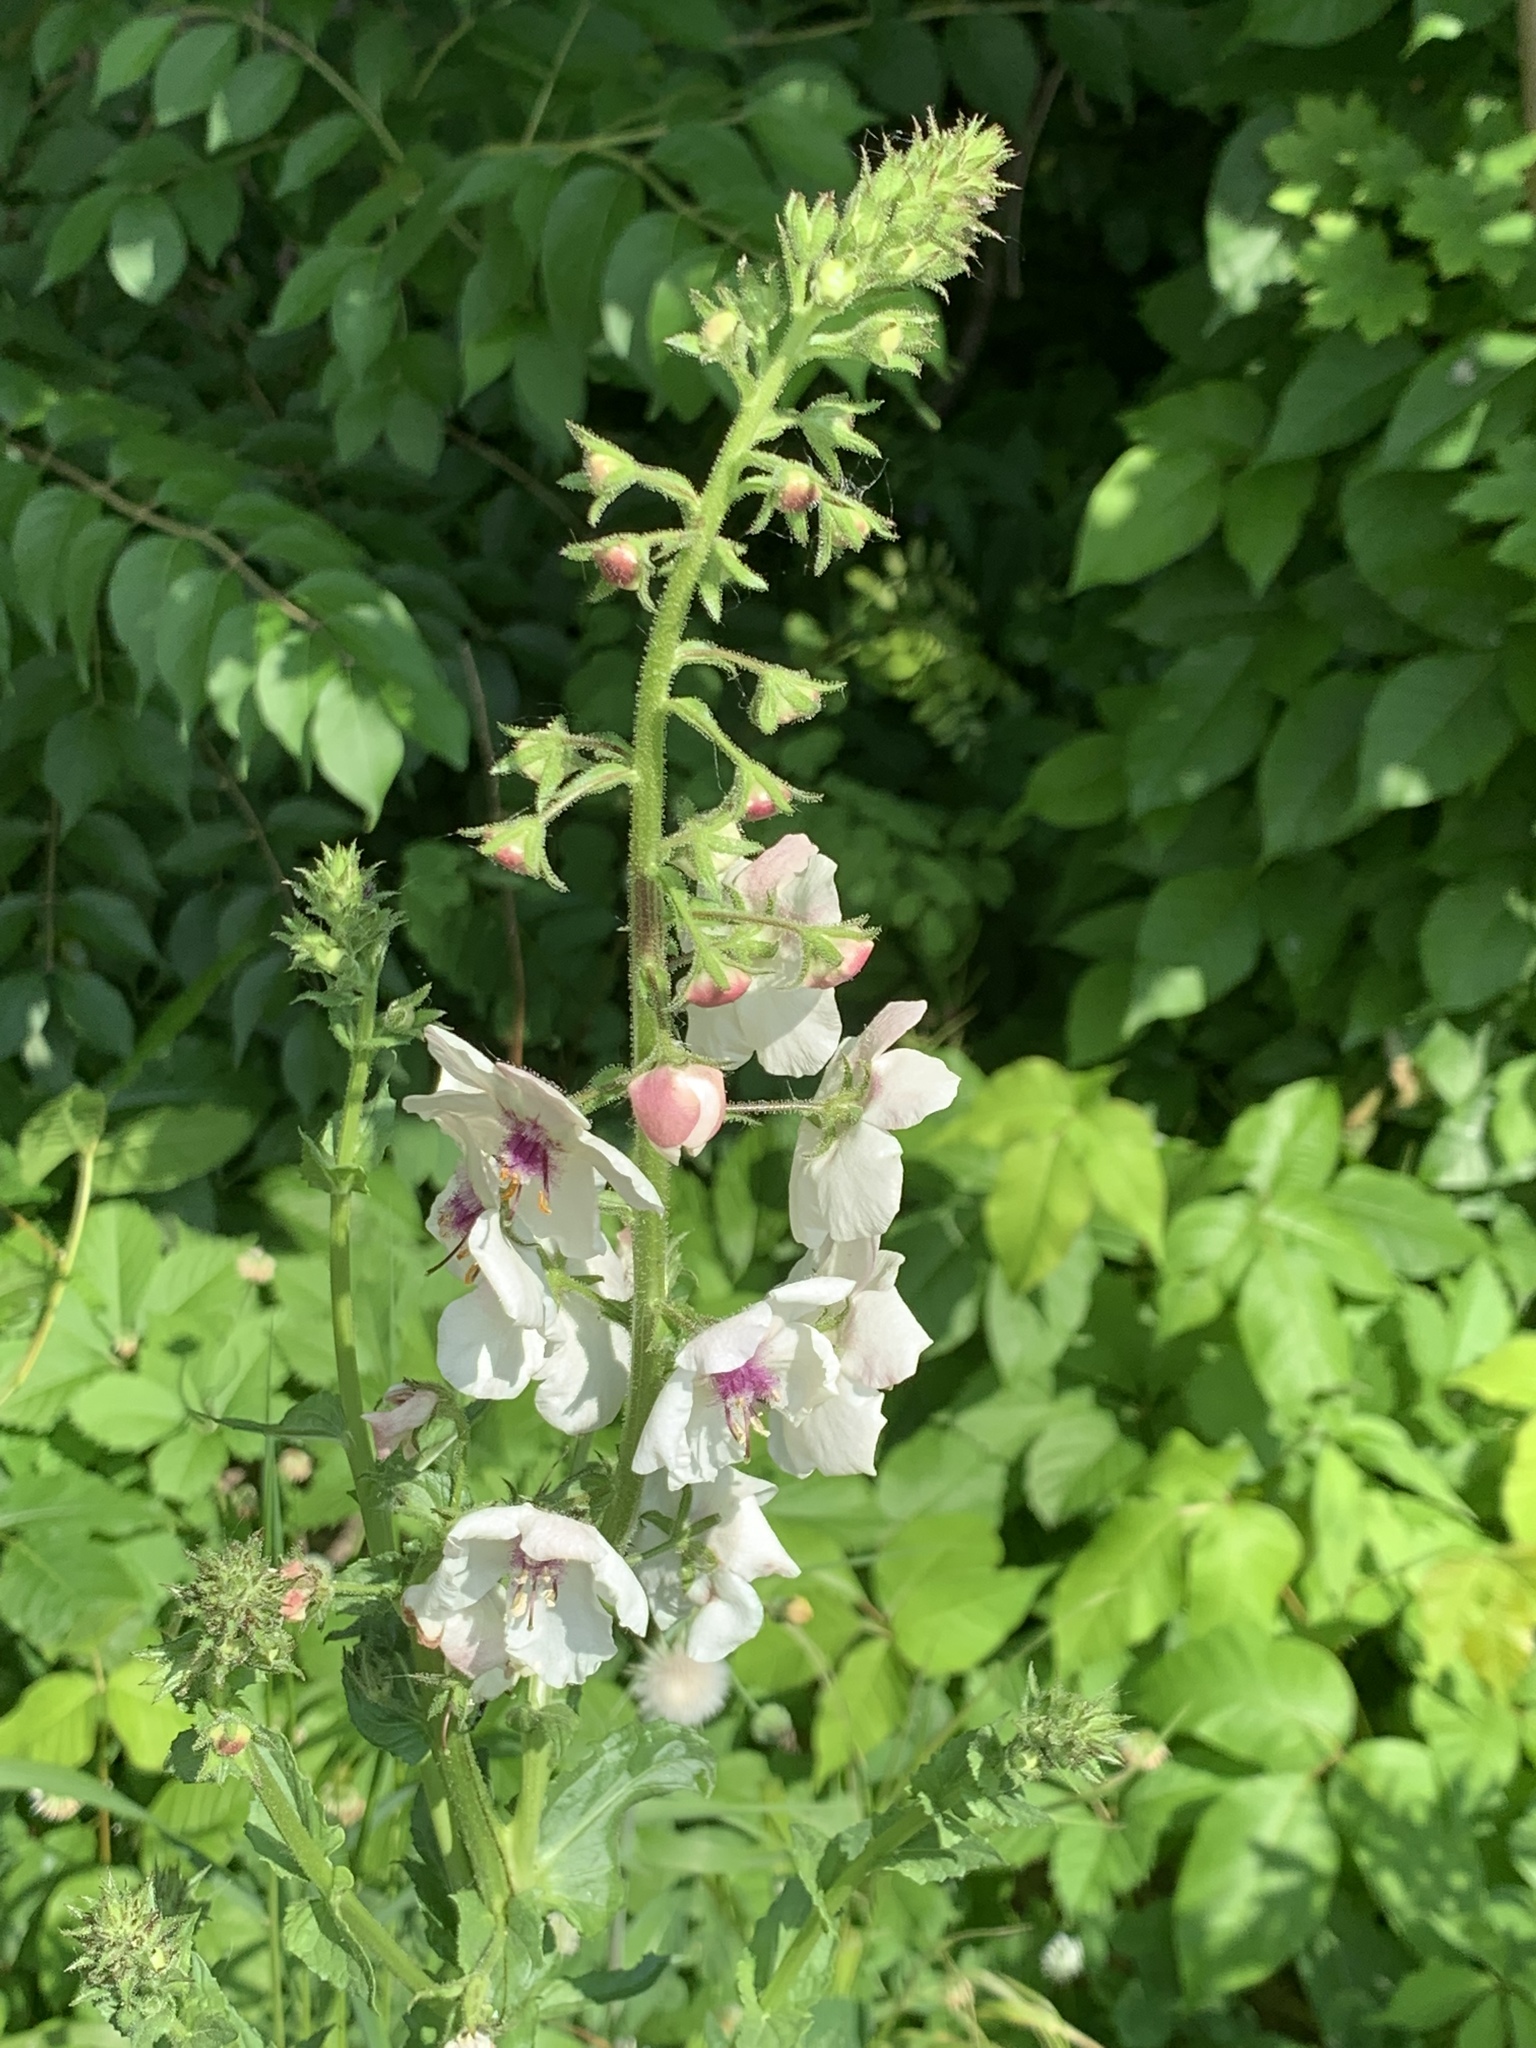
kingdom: Plantae
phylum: Tracheophyta
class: Magnoliopsida
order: Lamiales
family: Scrophulariaceae
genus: Verbascum
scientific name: Verbascum blattaria
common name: Moth mullein
